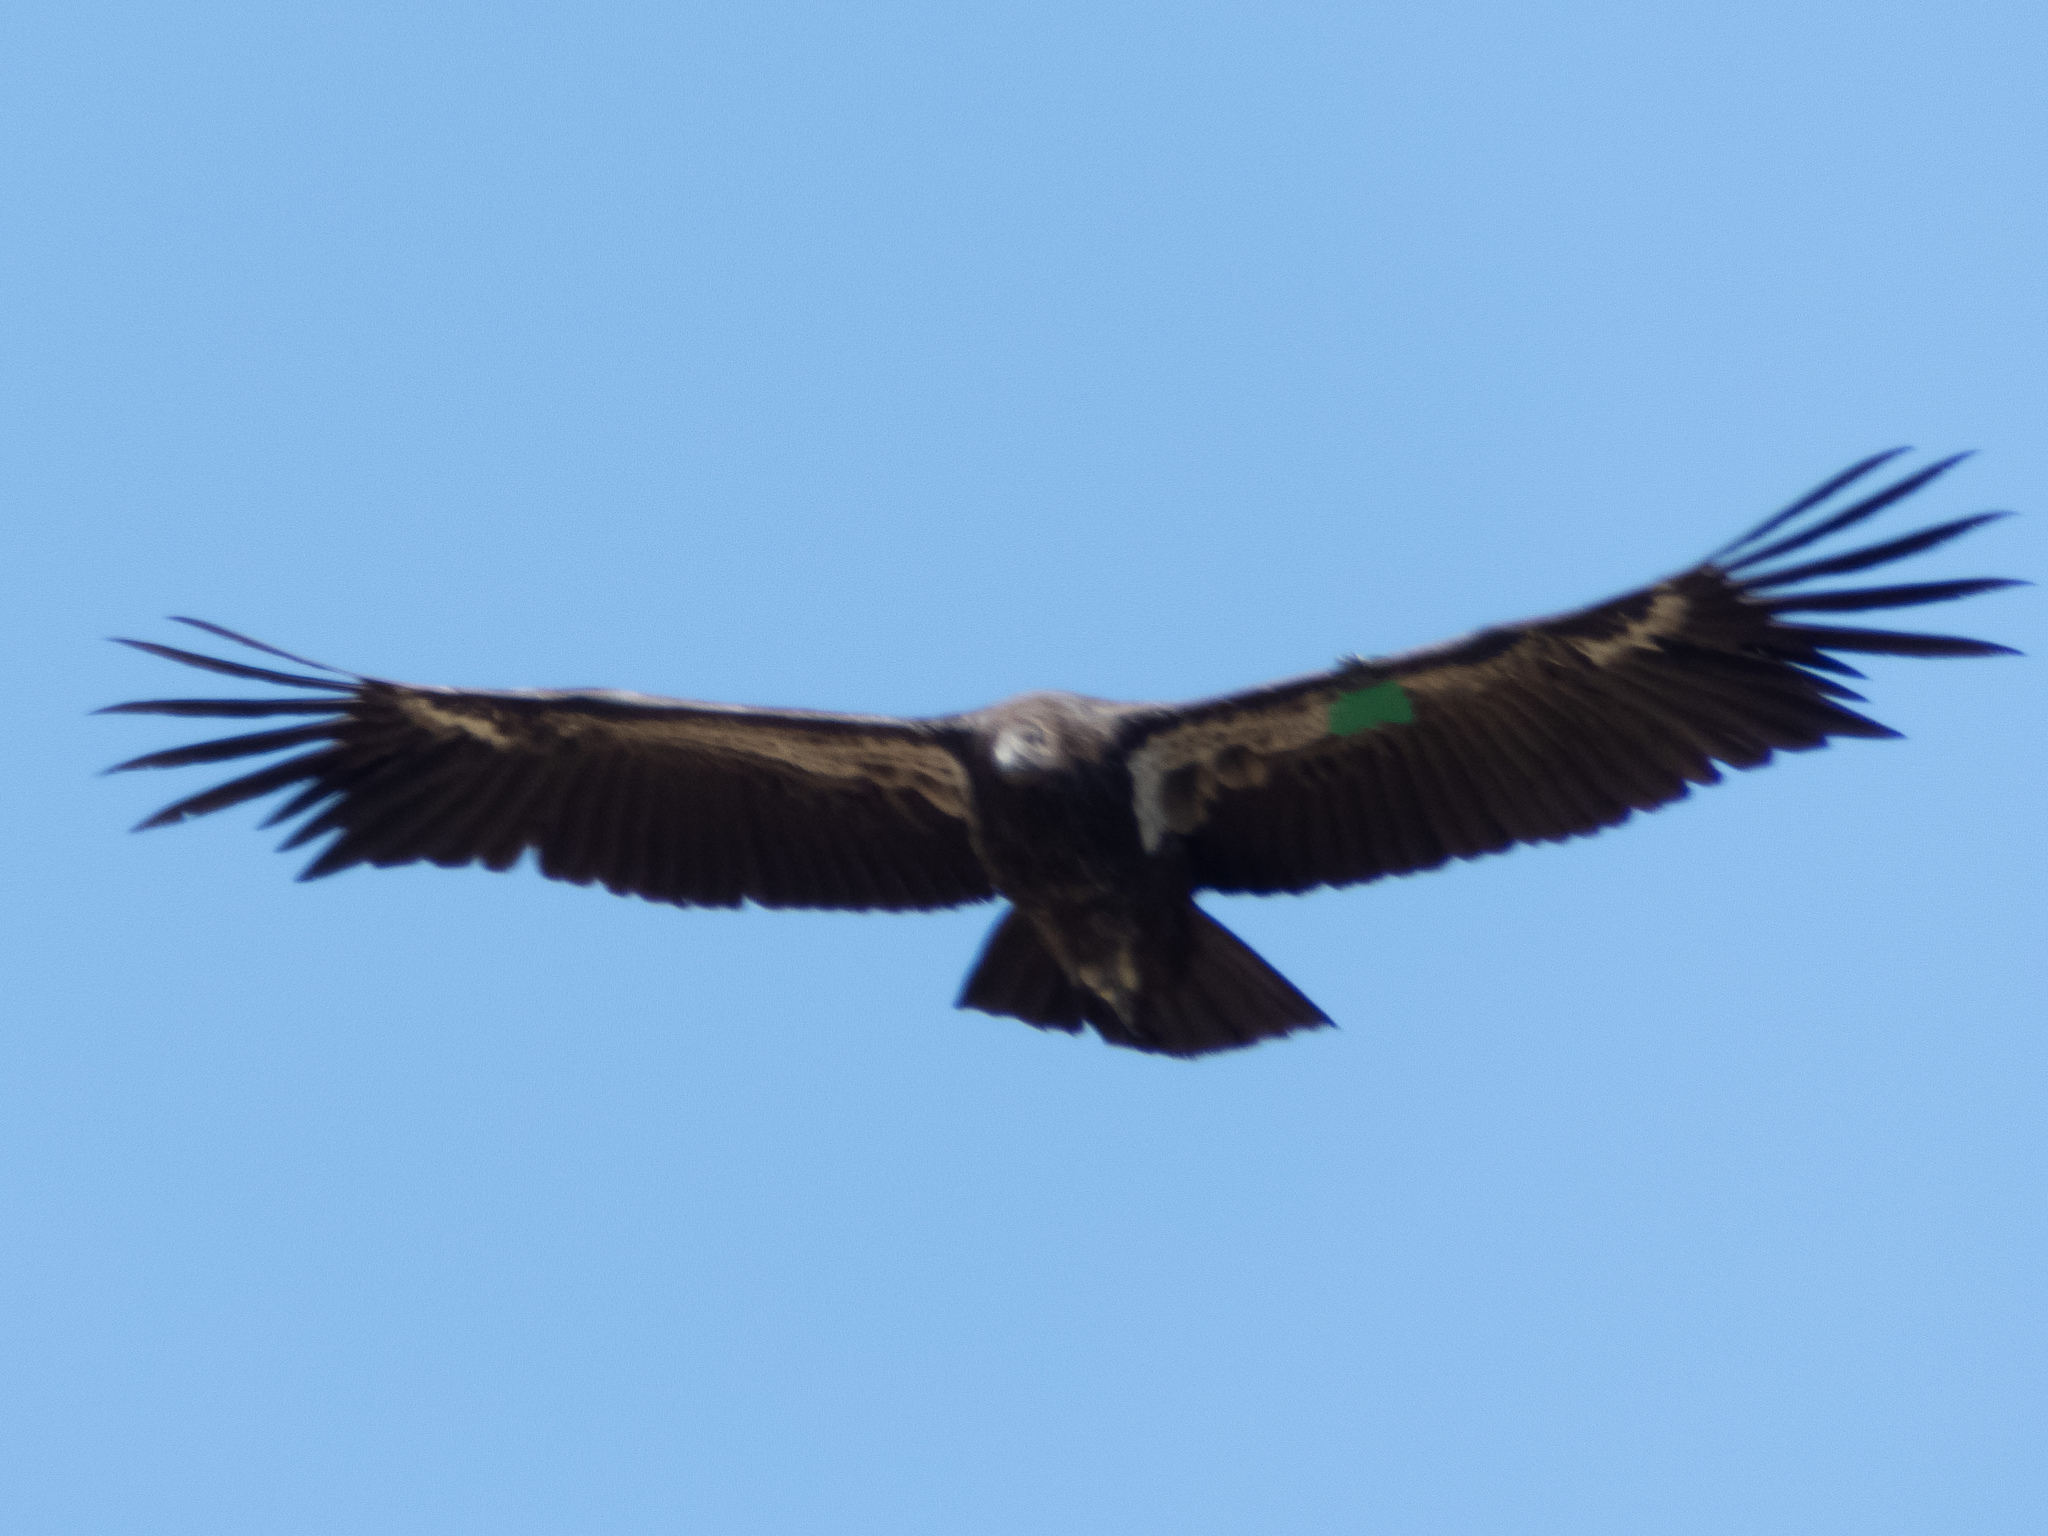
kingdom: Animalia
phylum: Chordata
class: Aves
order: Accipitriformes
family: Cathartidae
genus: Gymnogyps
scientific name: Gymnogyps californianus
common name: California condor
